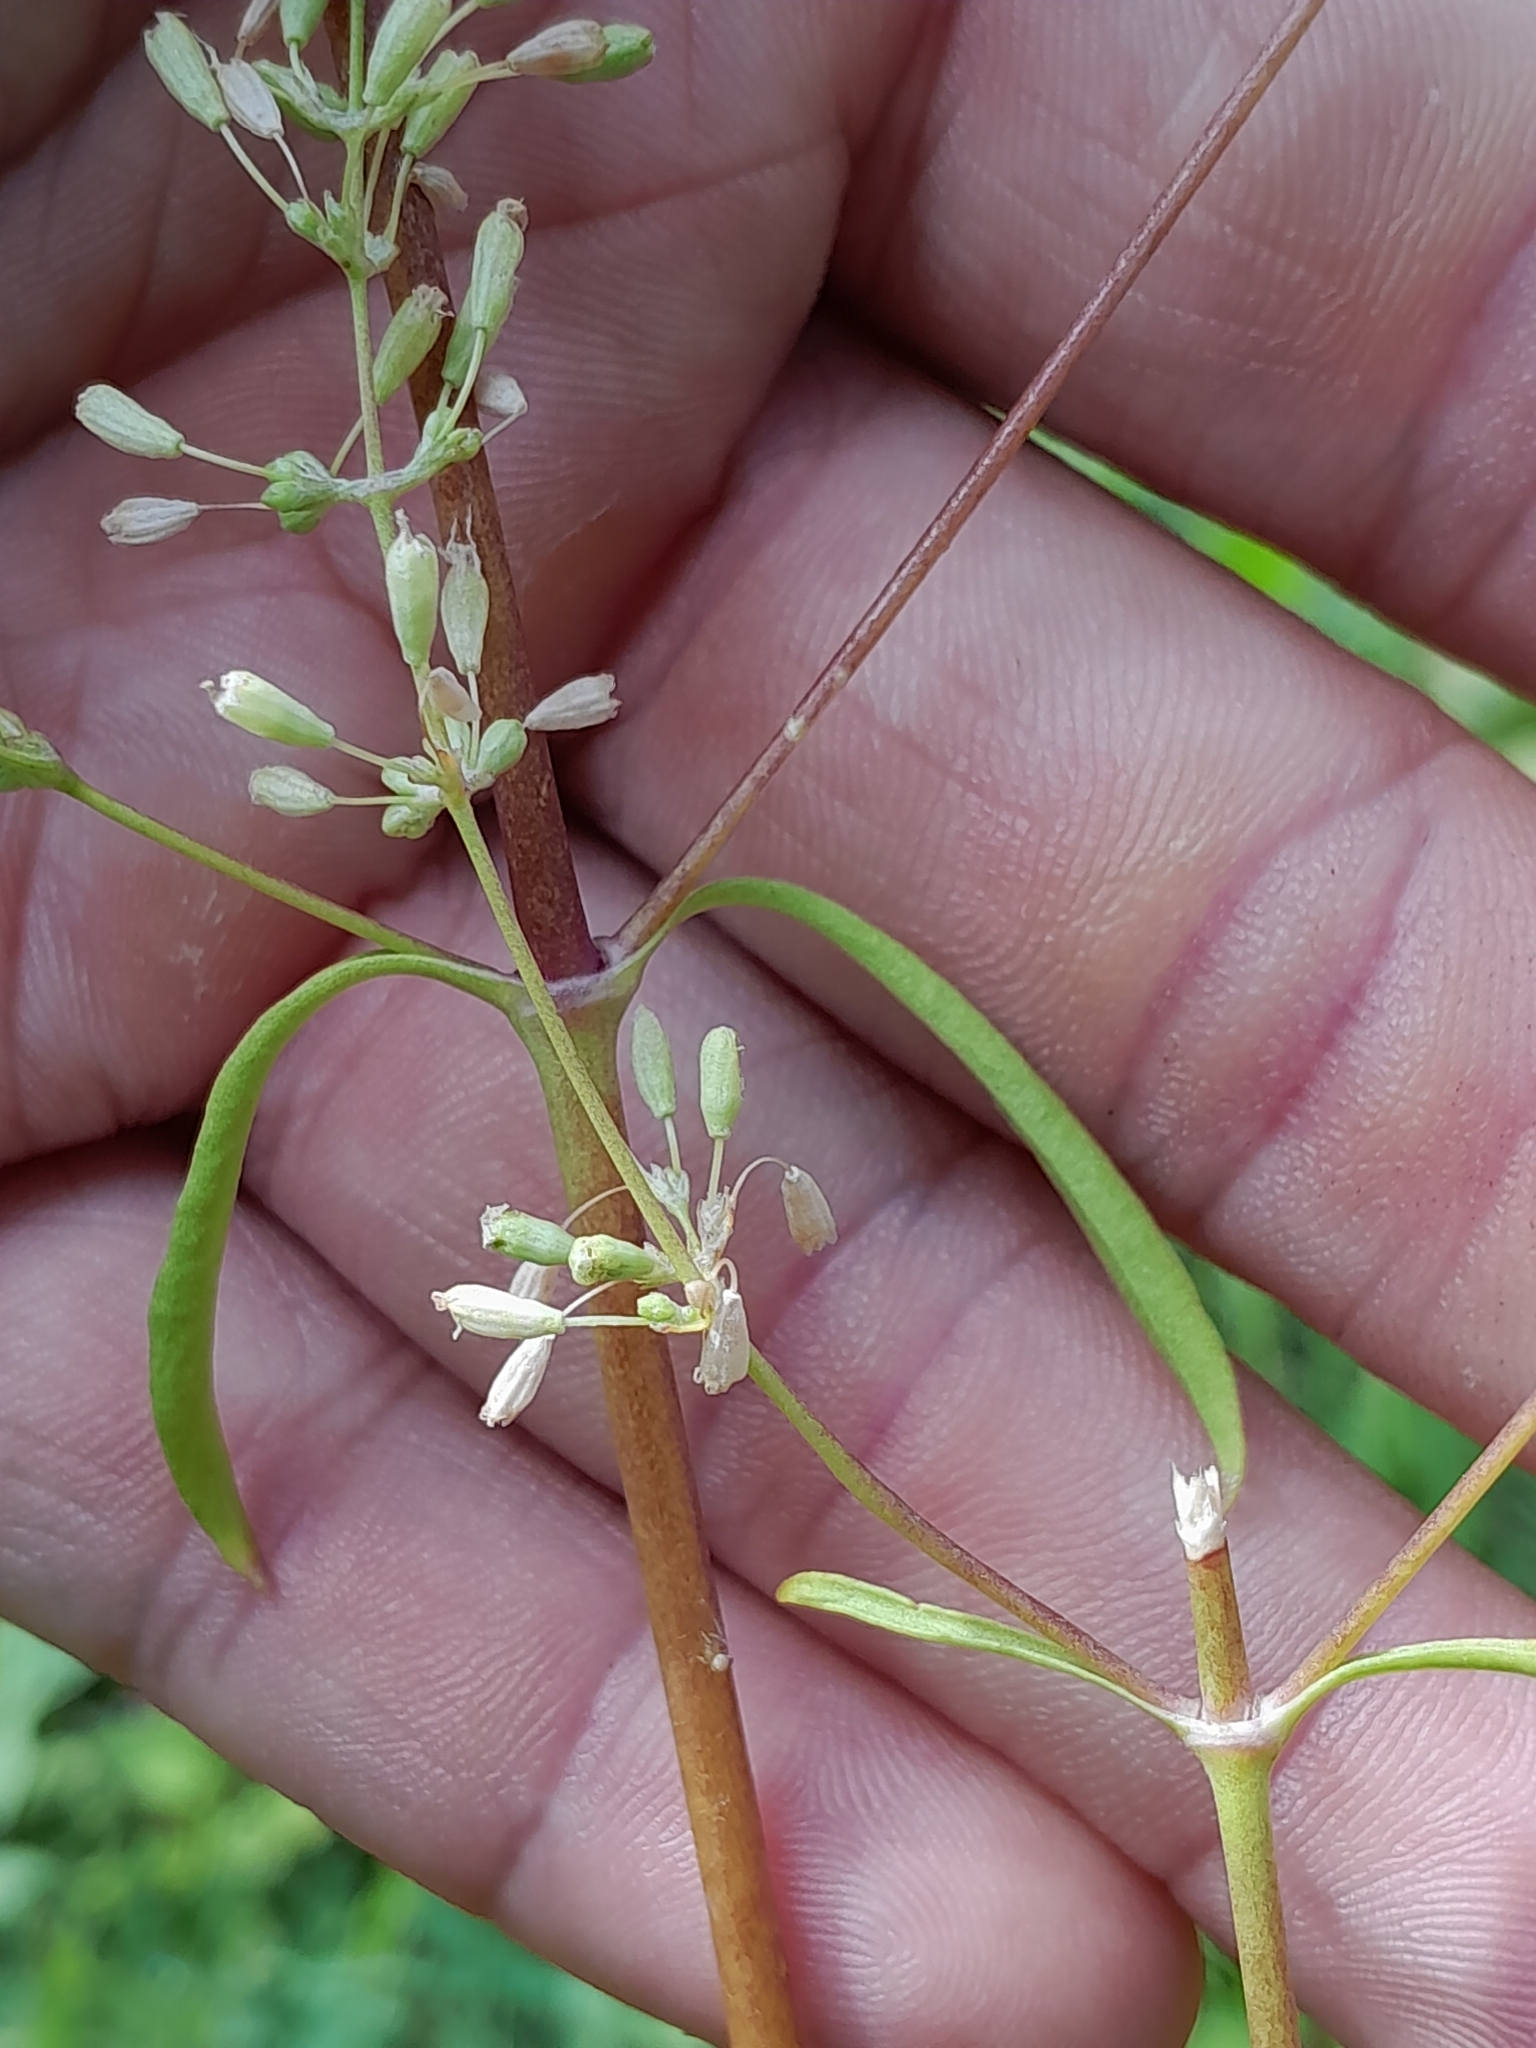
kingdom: Plantae
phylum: Tracheophyta
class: Magnoliopsida
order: Caryophyllales
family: Caryophyllaceae
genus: Silene
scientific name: Silene otites
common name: Spanish catchfly
